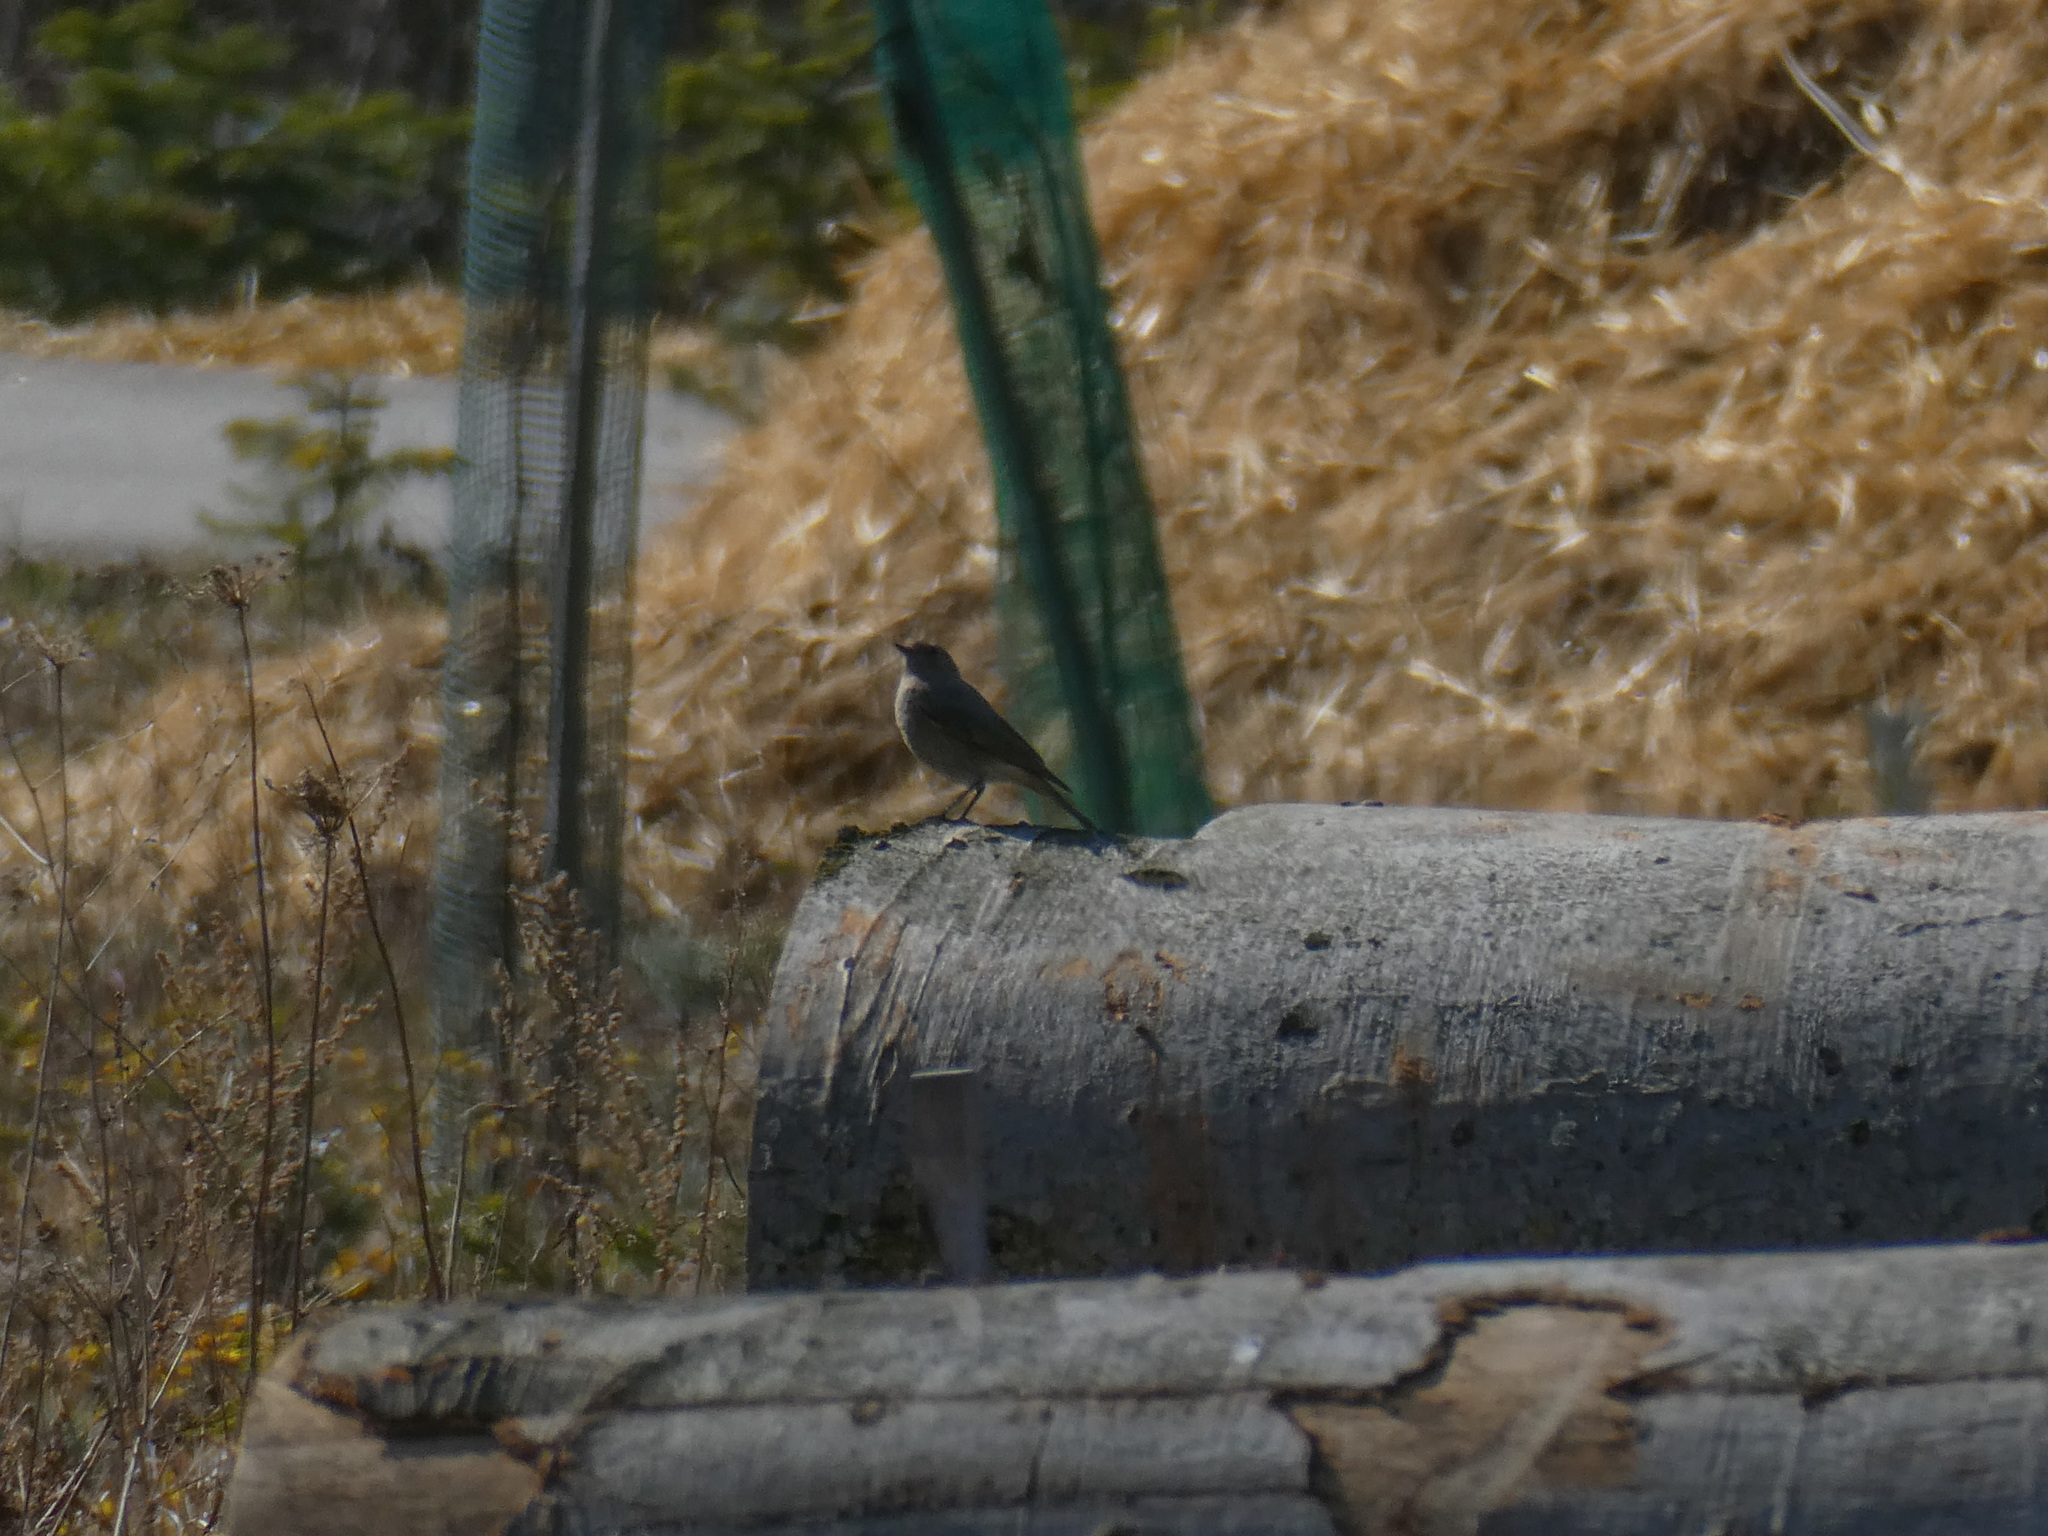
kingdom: Animalia
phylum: Chordata
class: Aves
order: Passeriformes
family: Muscicapidae
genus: Phoenicurus
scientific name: Phoenicurus ochruros
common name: Black redstart
